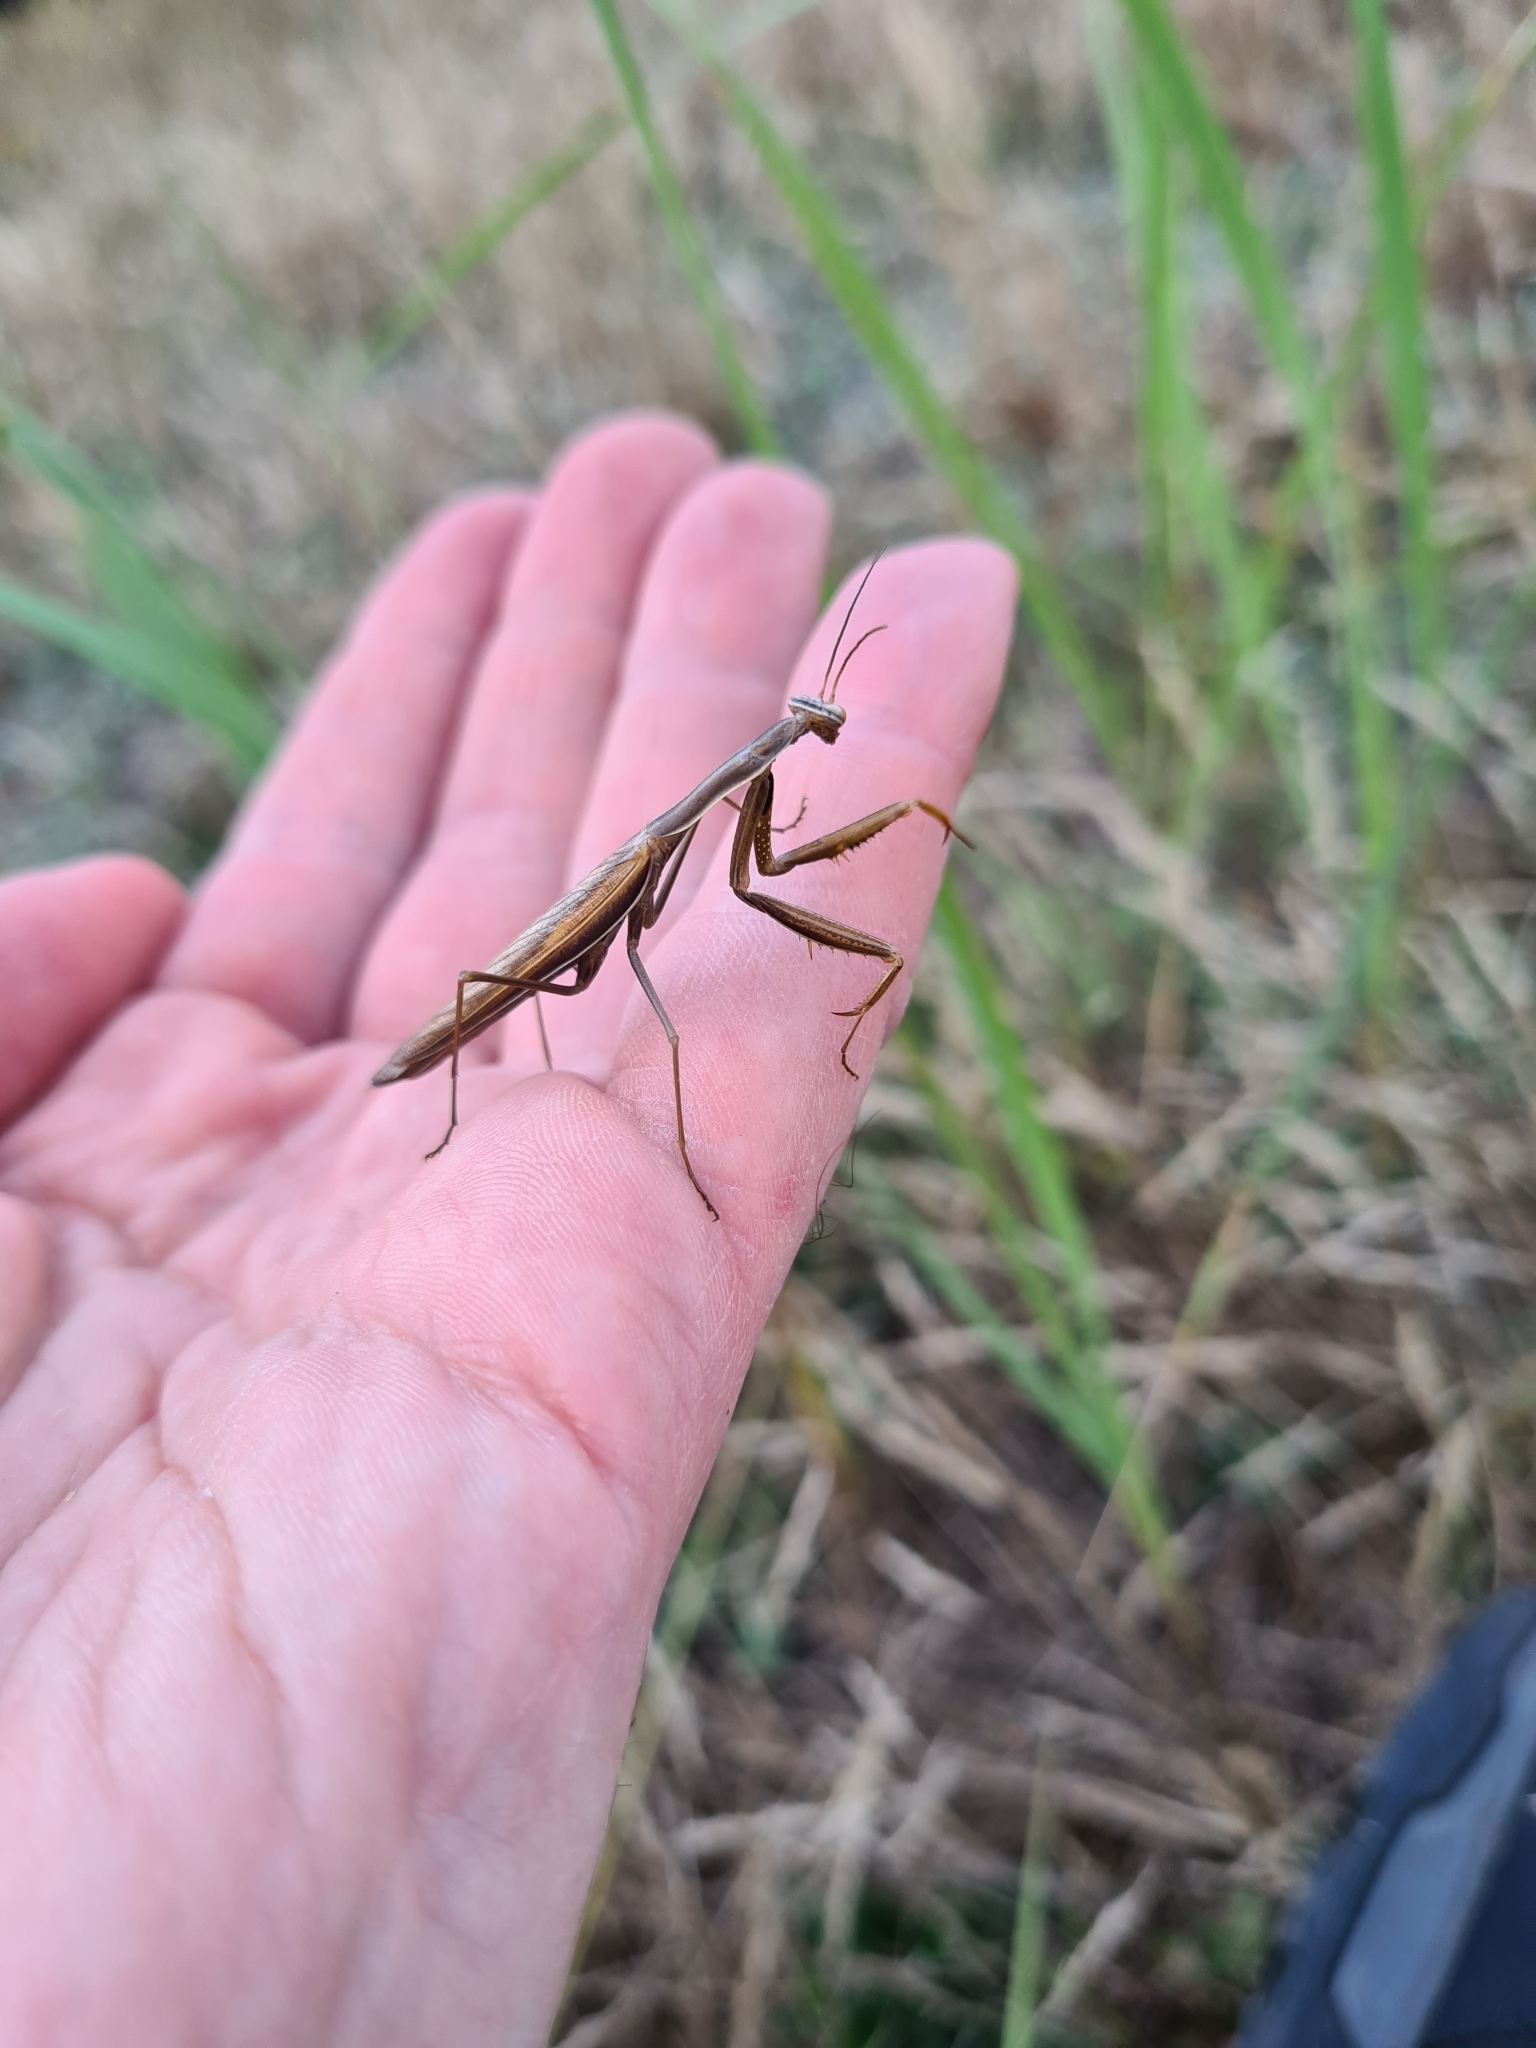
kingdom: Animalia
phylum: Arthropoda
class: Insecta
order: Mantodea
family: Mantidae
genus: Mantis
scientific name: Mantis religiosa
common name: Praying mantis
